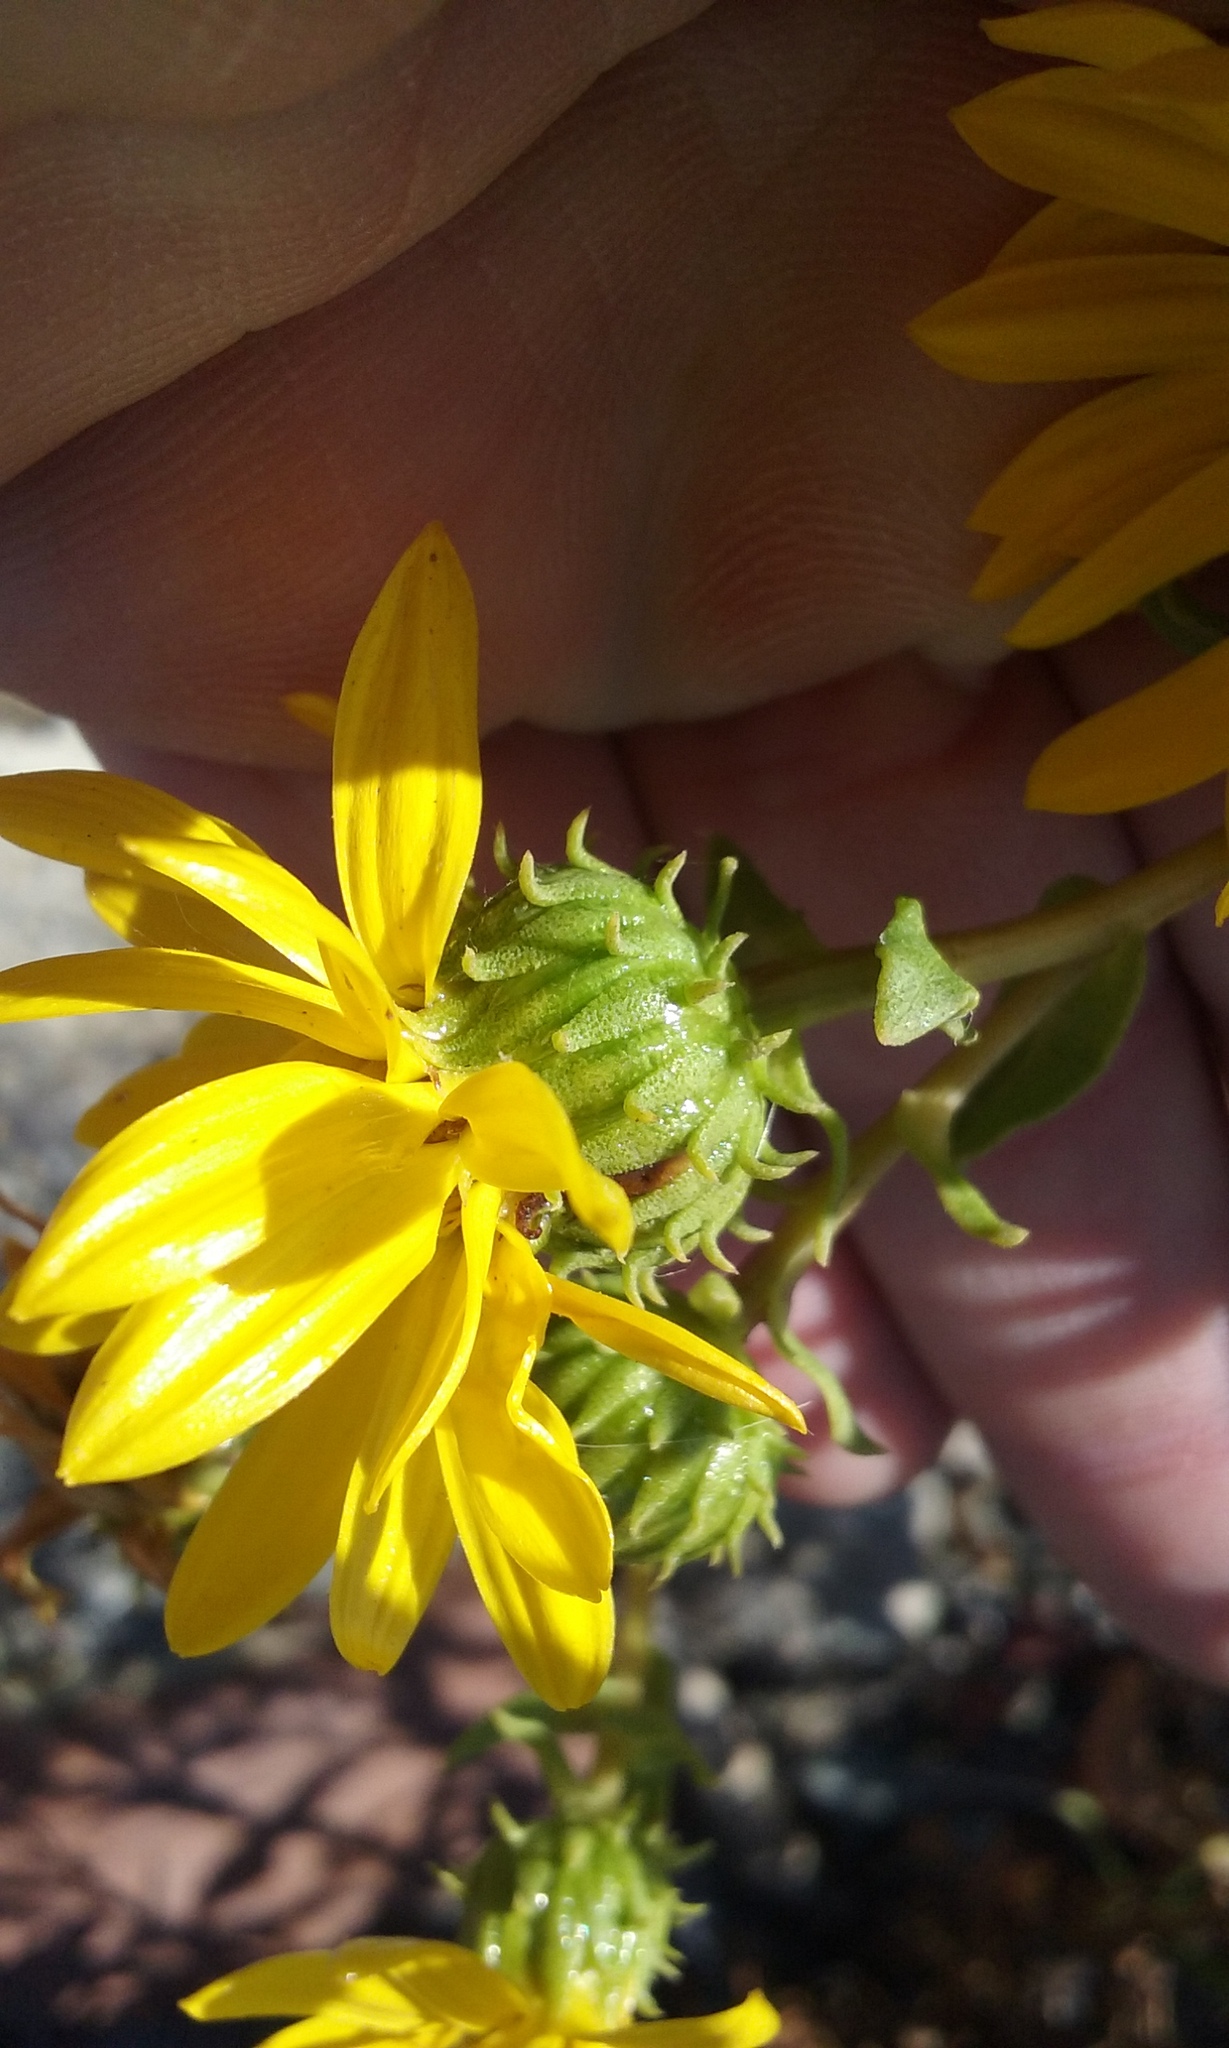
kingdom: Plantae
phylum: Tracheophyta
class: Magnoliopsida
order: Asterales
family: Asteraceae
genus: Grindelia
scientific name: Grindelia hirsutula
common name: Hairy gumweed
